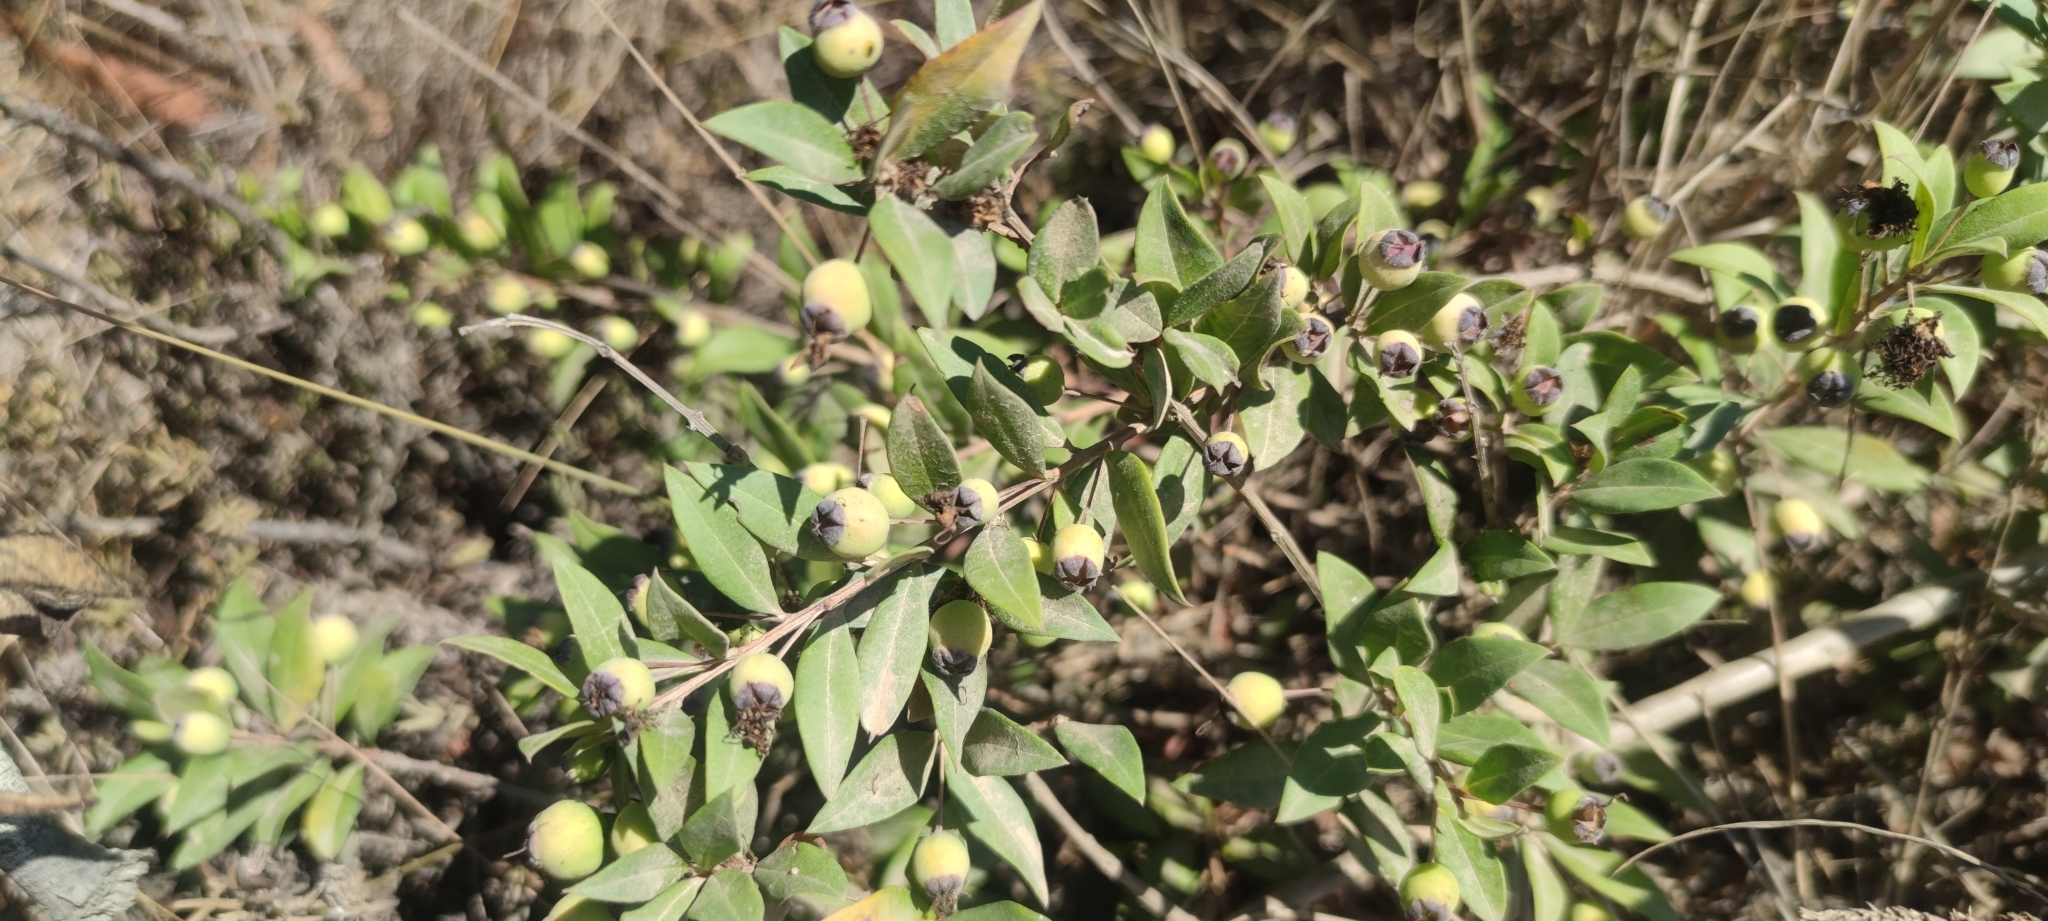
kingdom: Plantae
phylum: Tracheophyta
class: Magnoliopsida
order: Myrtales
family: Myrtaceae
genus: Myrtus
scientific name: Myrtus communis
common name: Myrtle
